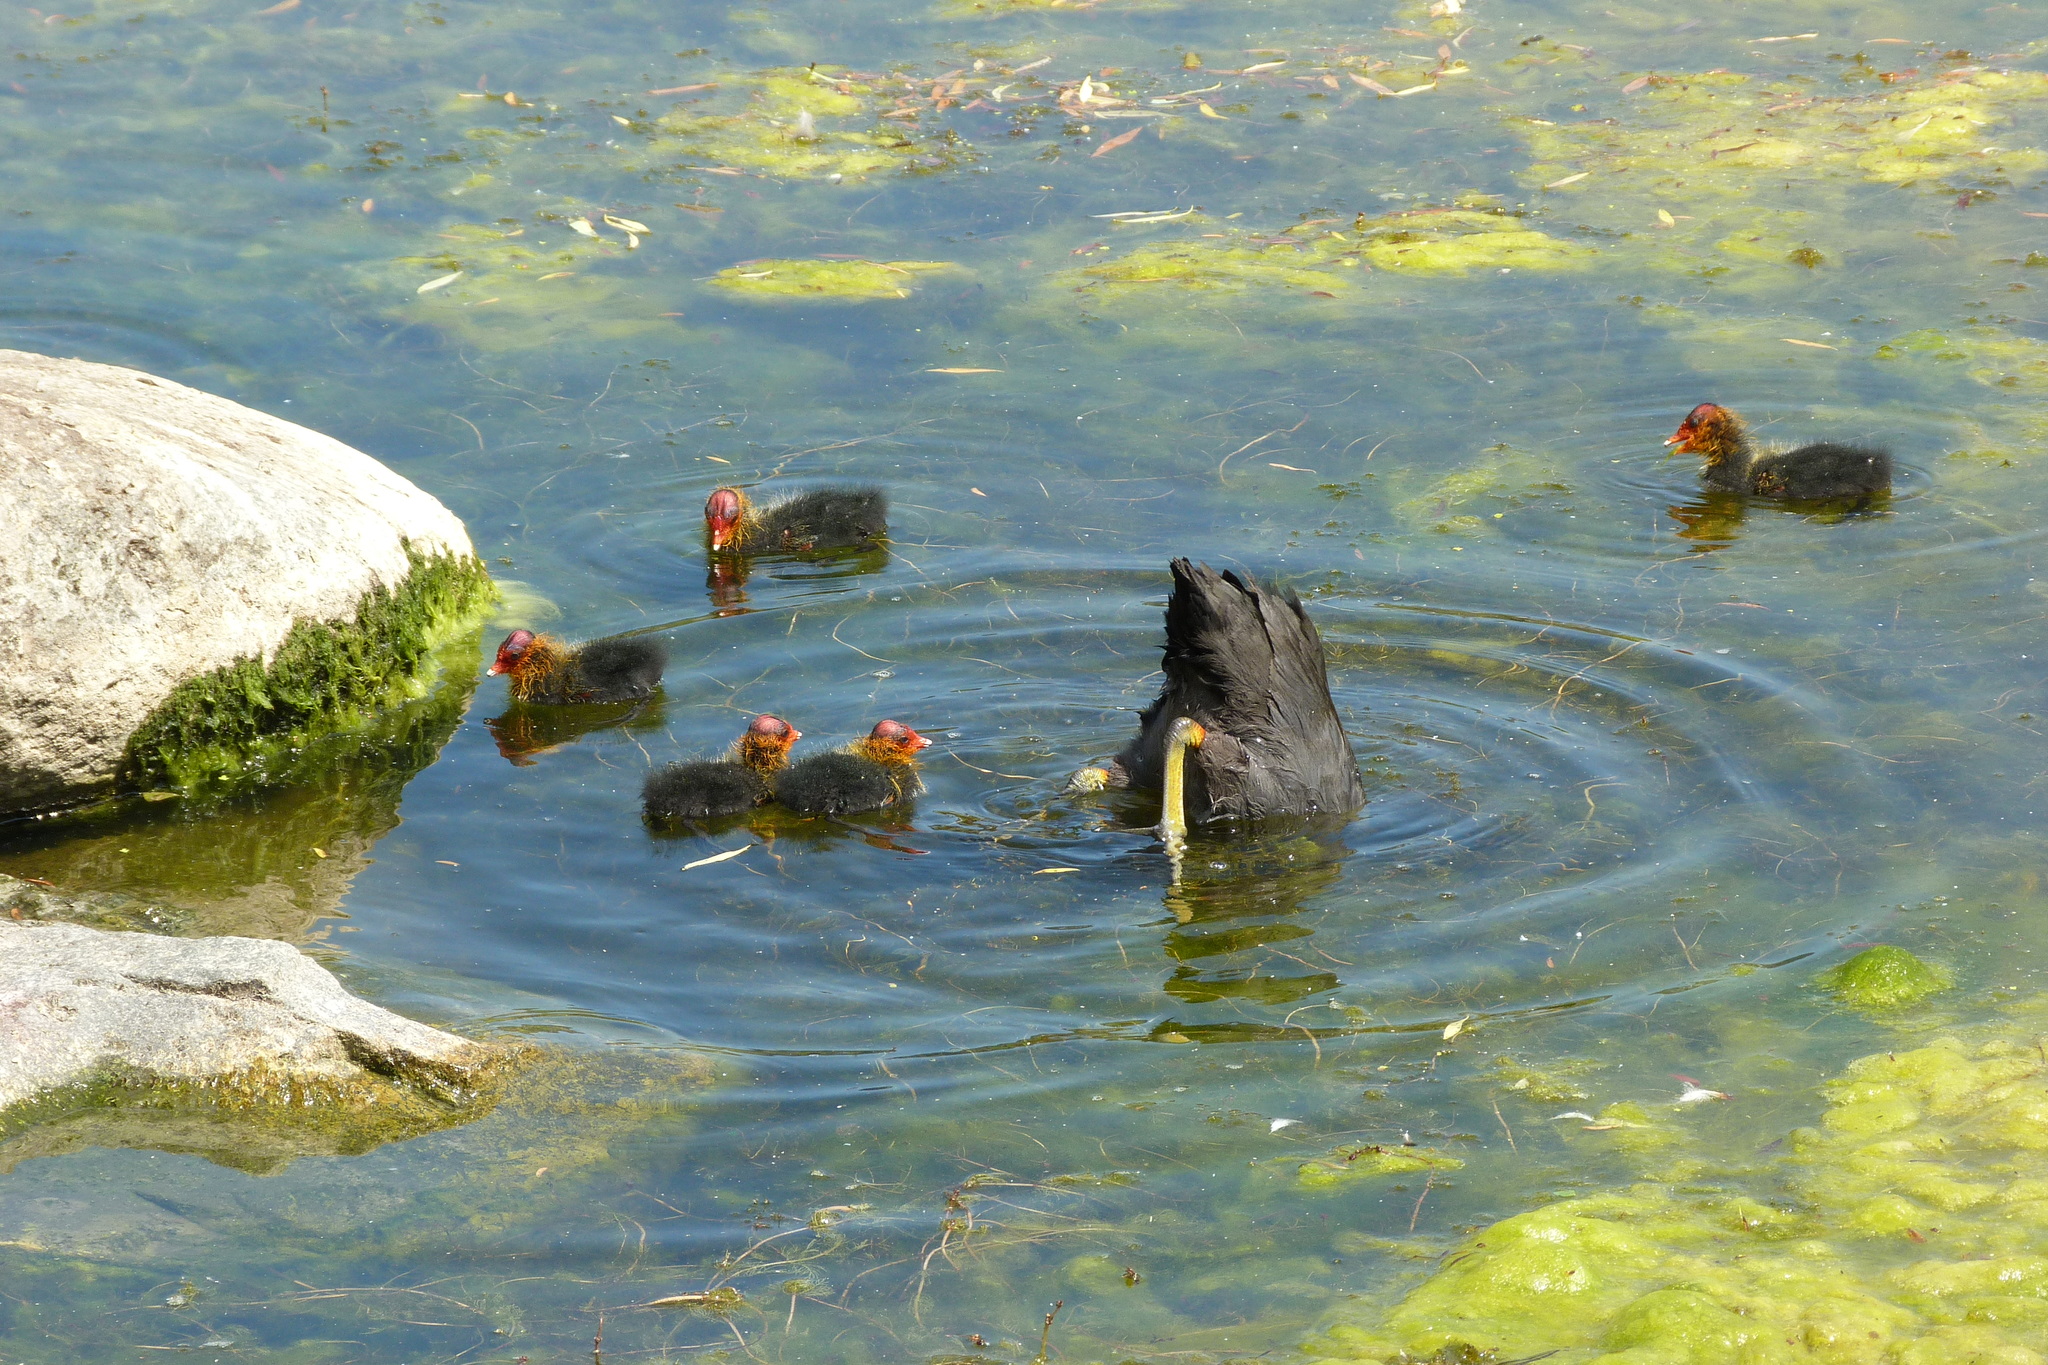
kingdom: Animalia
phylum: Chordata
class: Aves
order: Gruiformes
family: Rallidae
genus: Fulica
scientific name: Fulica atra
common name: Eurasian coot
